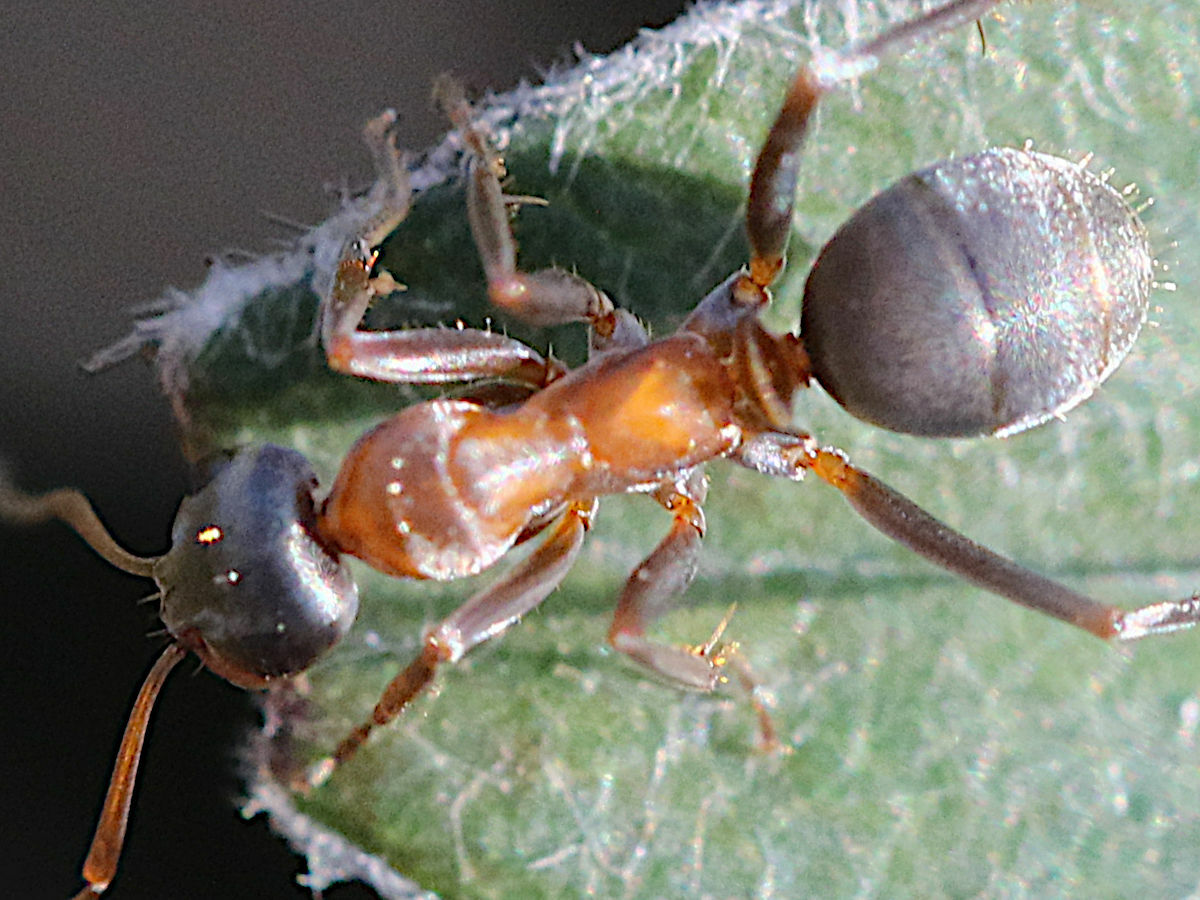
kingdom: Animalia
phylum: Arthropoda
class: Insecta
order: Hymenoptera
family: Formicidae
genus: Formica
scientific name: Formica
